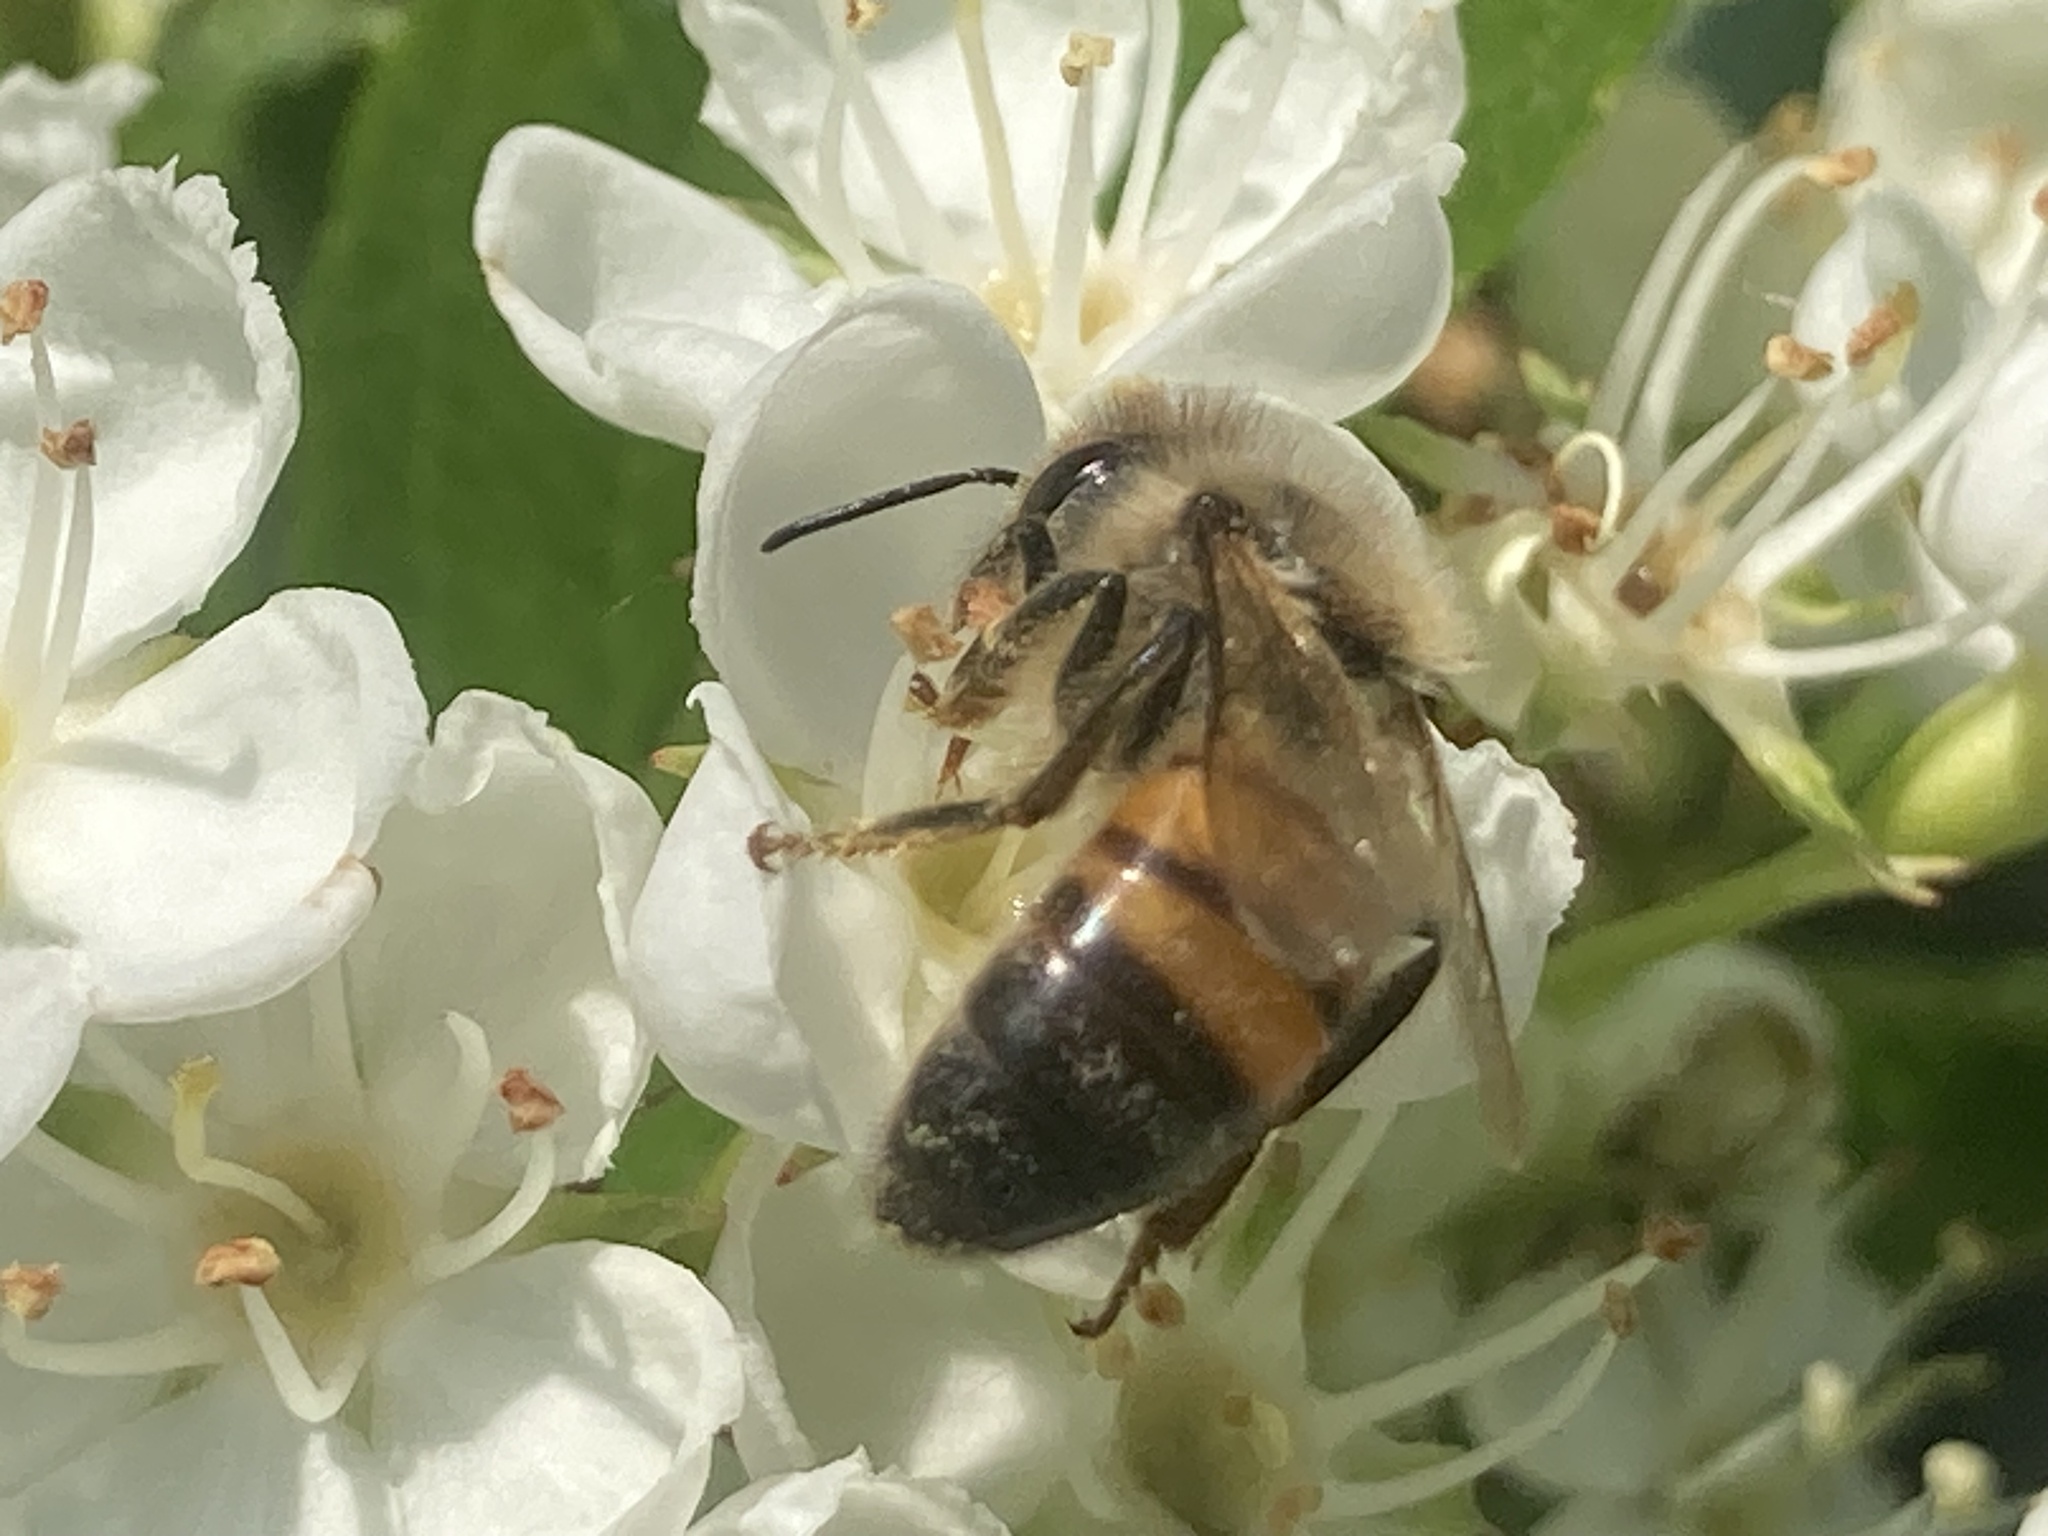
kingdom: Animalia
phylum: Arthropoda
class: Insecta
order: Hymenoptera
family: Apidae
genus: Apis
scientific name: Apis mellifera
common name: Honey bee
